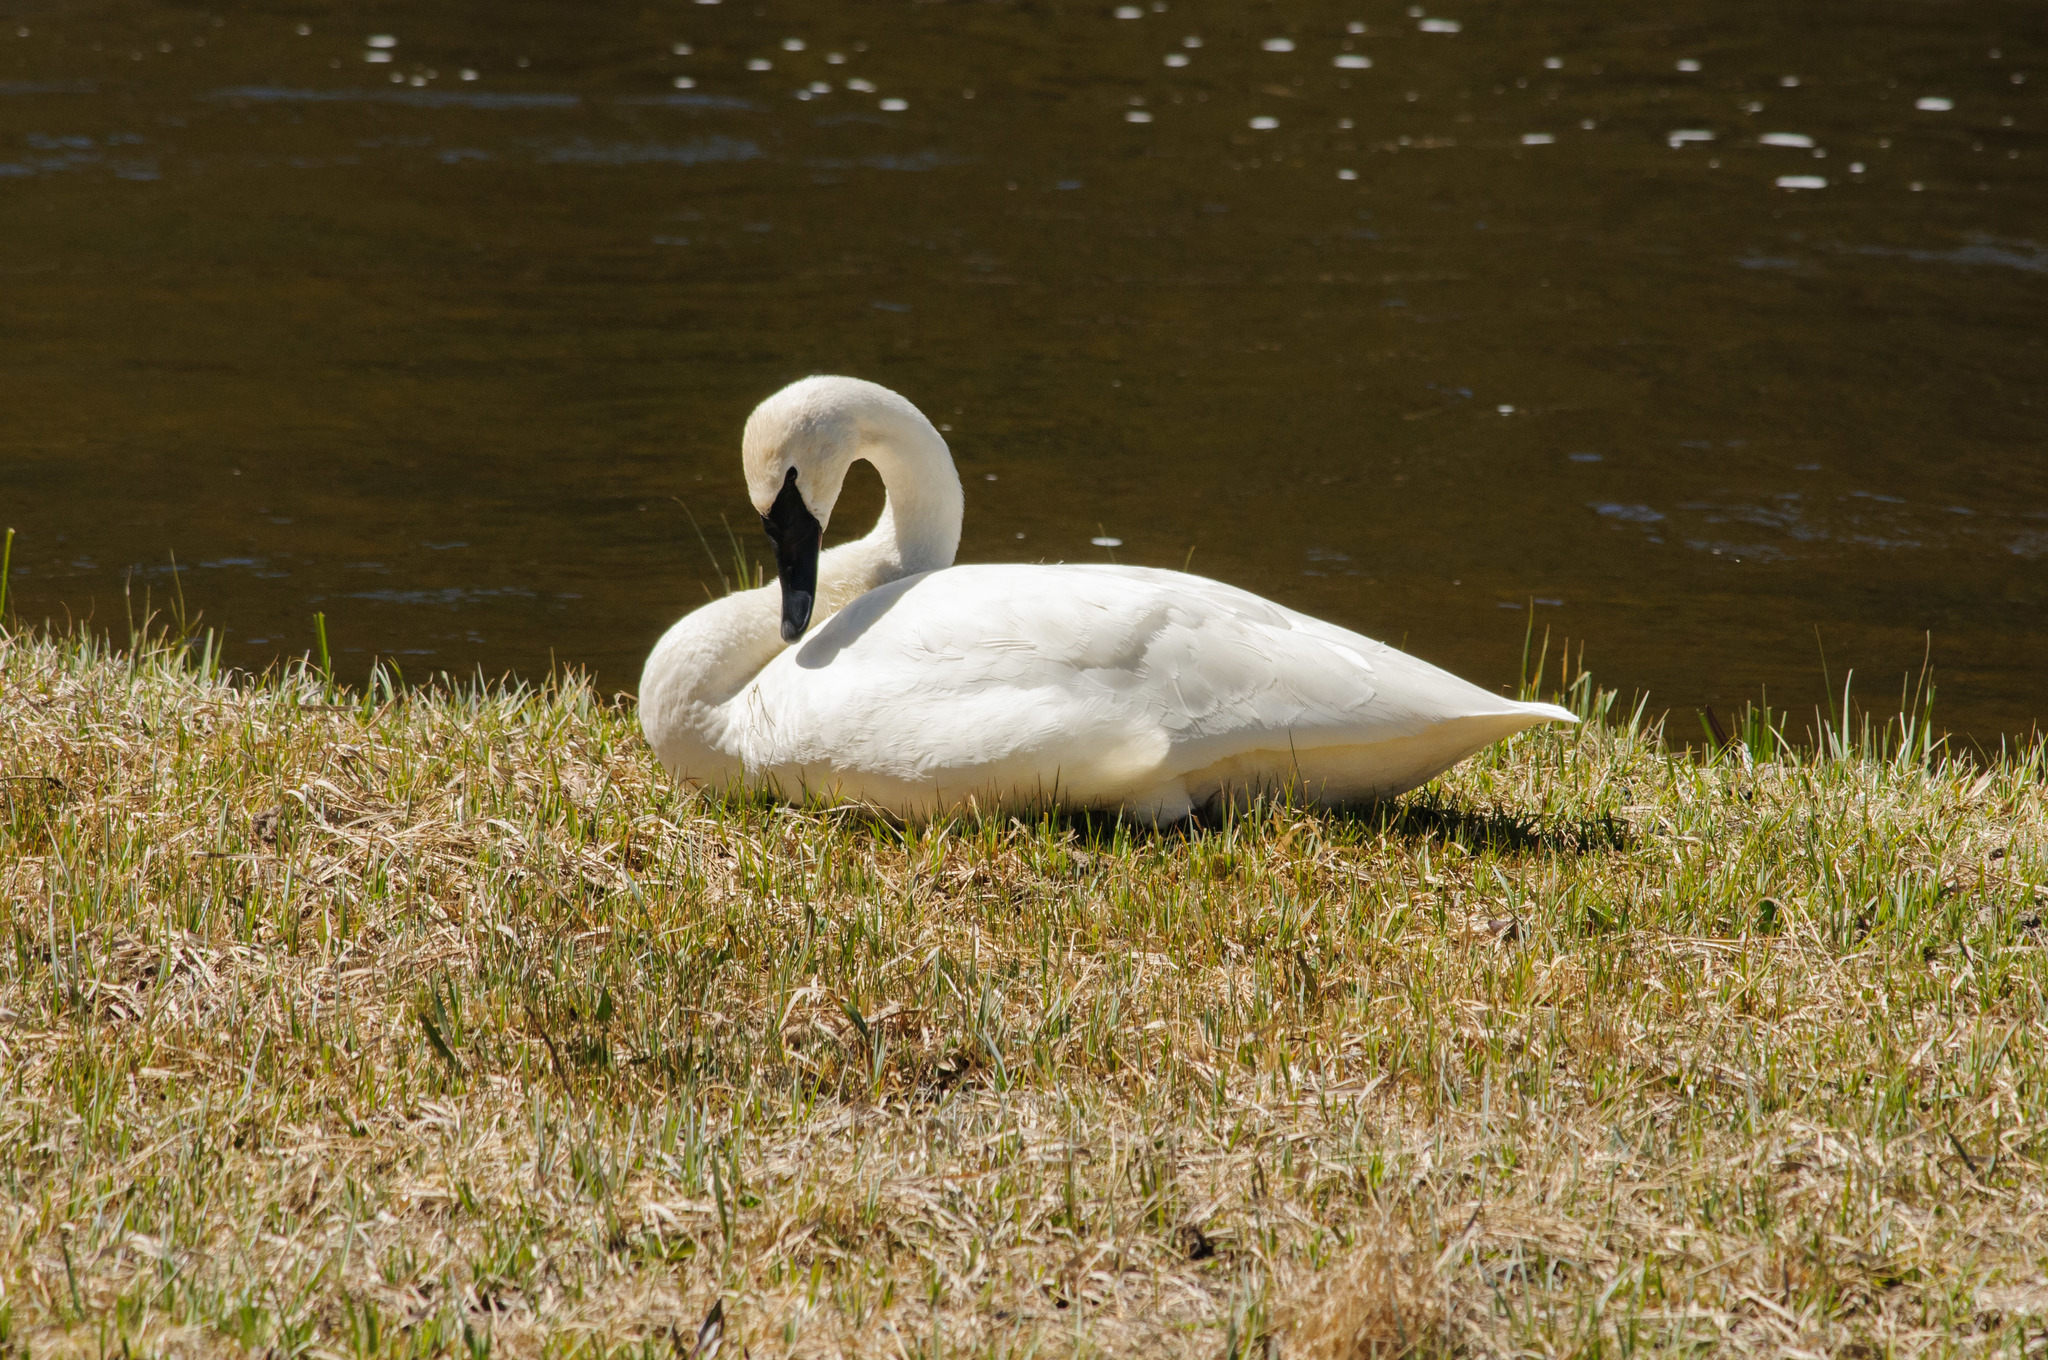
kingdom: Animalia
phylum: Chordata
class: Aves
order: Anseriformes
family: Anatidae
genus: Cygnus
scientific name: Cygnus buccinator
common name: Trumpeter swan
